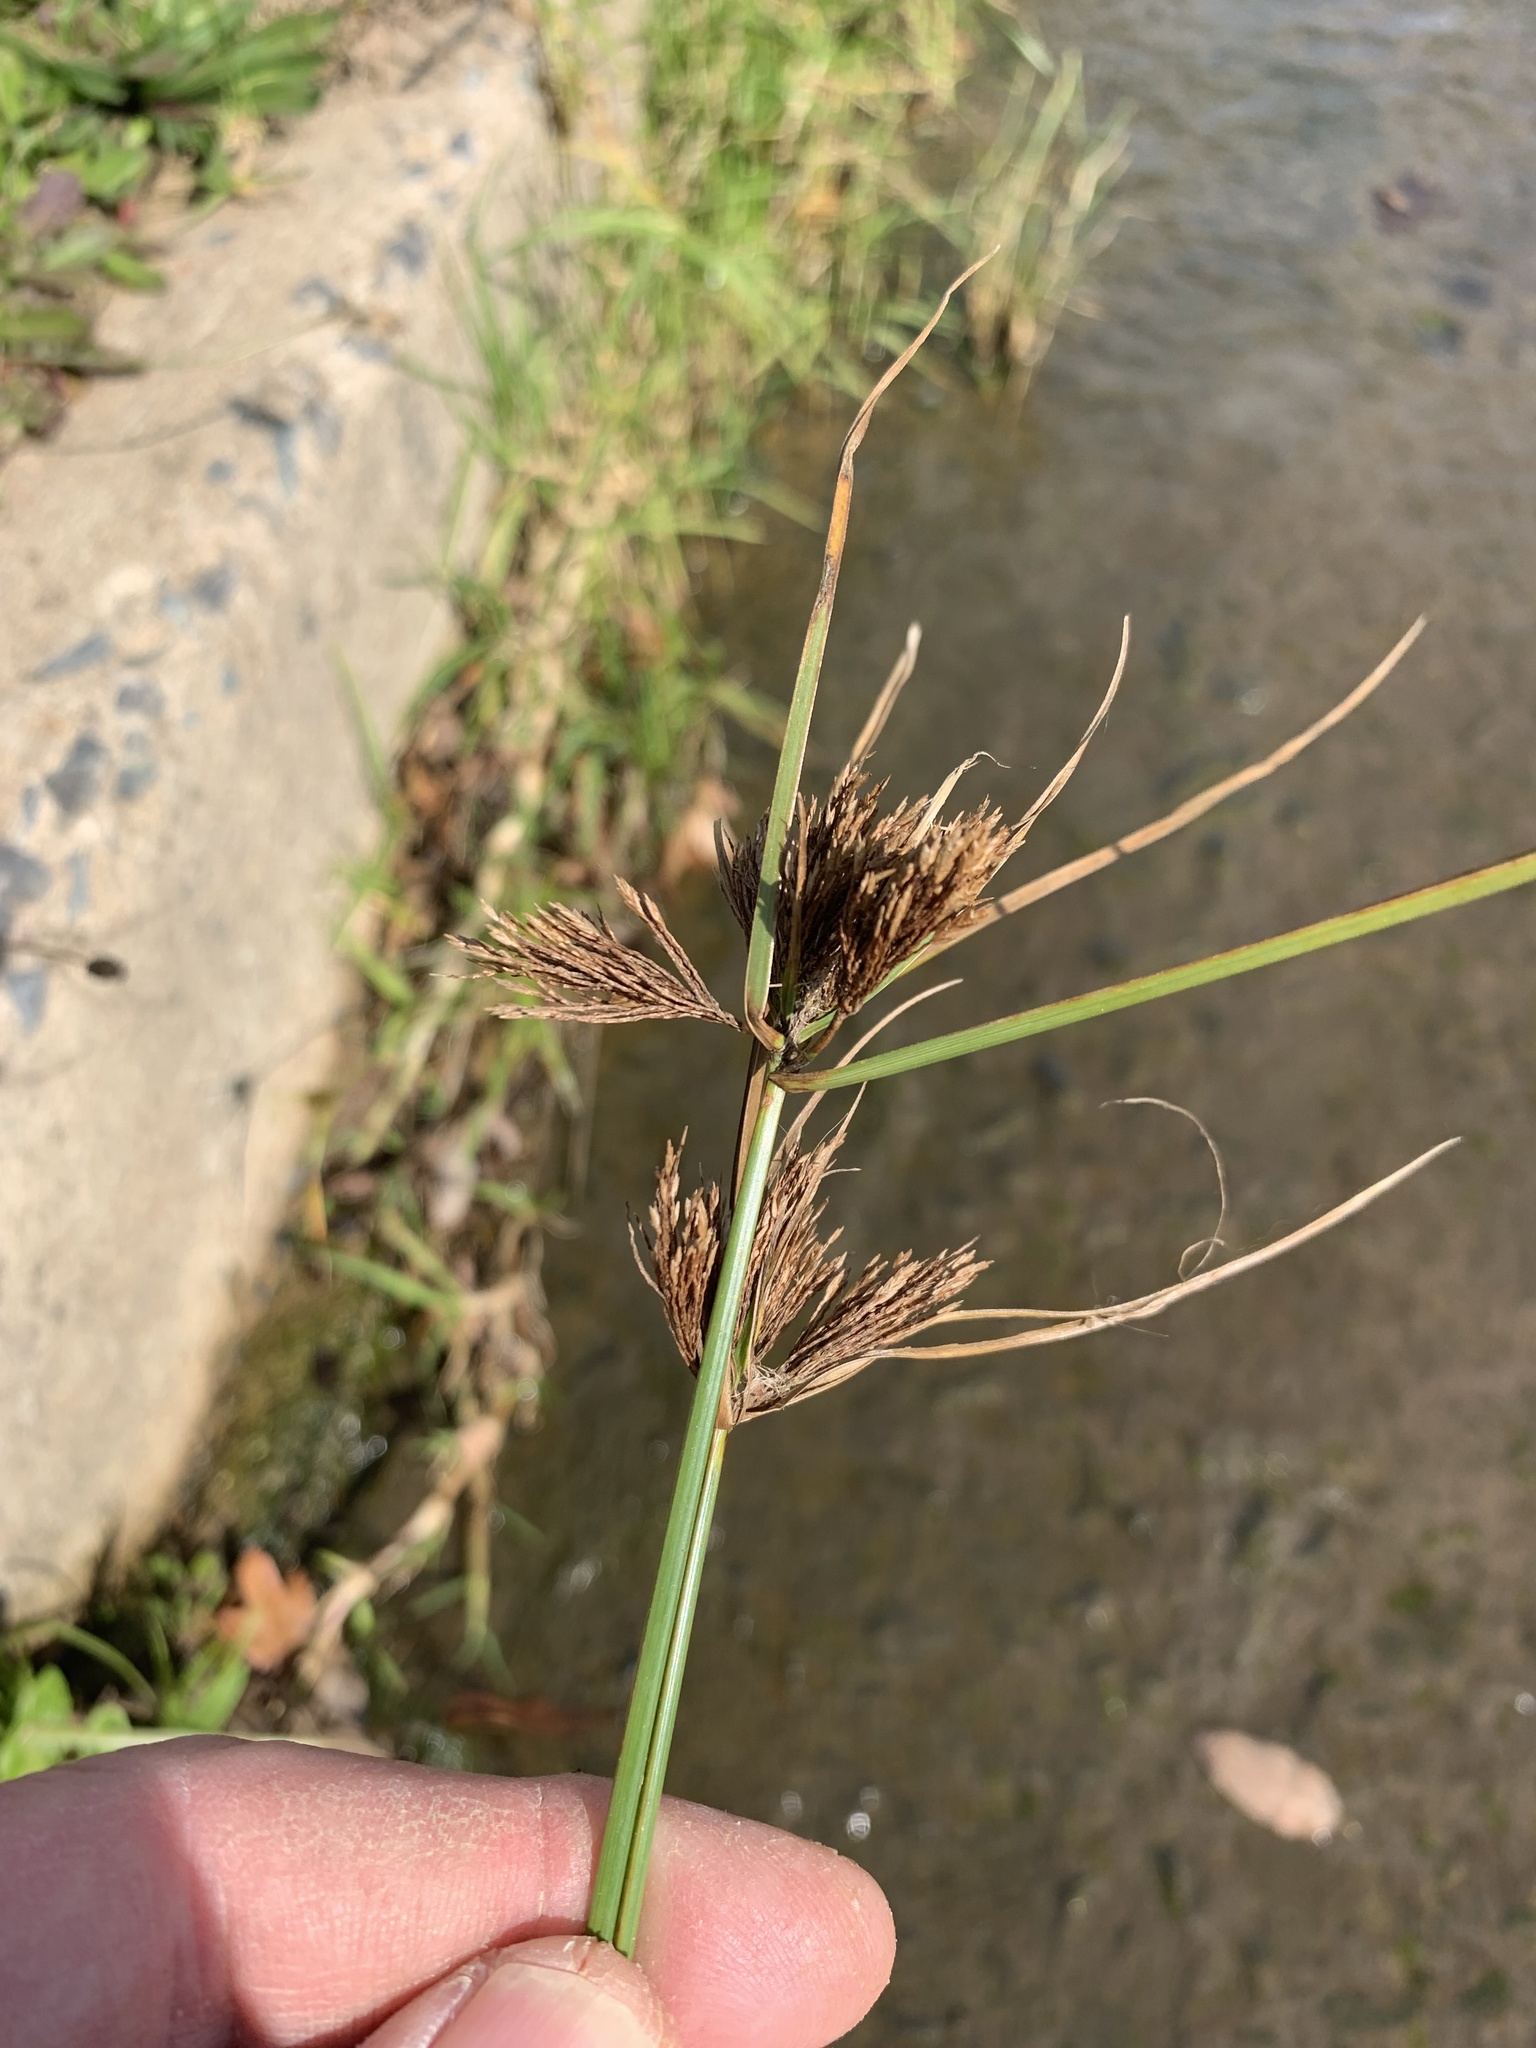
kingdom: Plantae
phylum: Tracheophyta
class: Liliopsida
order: Poales
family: Cyperaceae
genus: Cyperus
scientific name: Cyperus polystachyos
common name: Bunchy flat sedge
